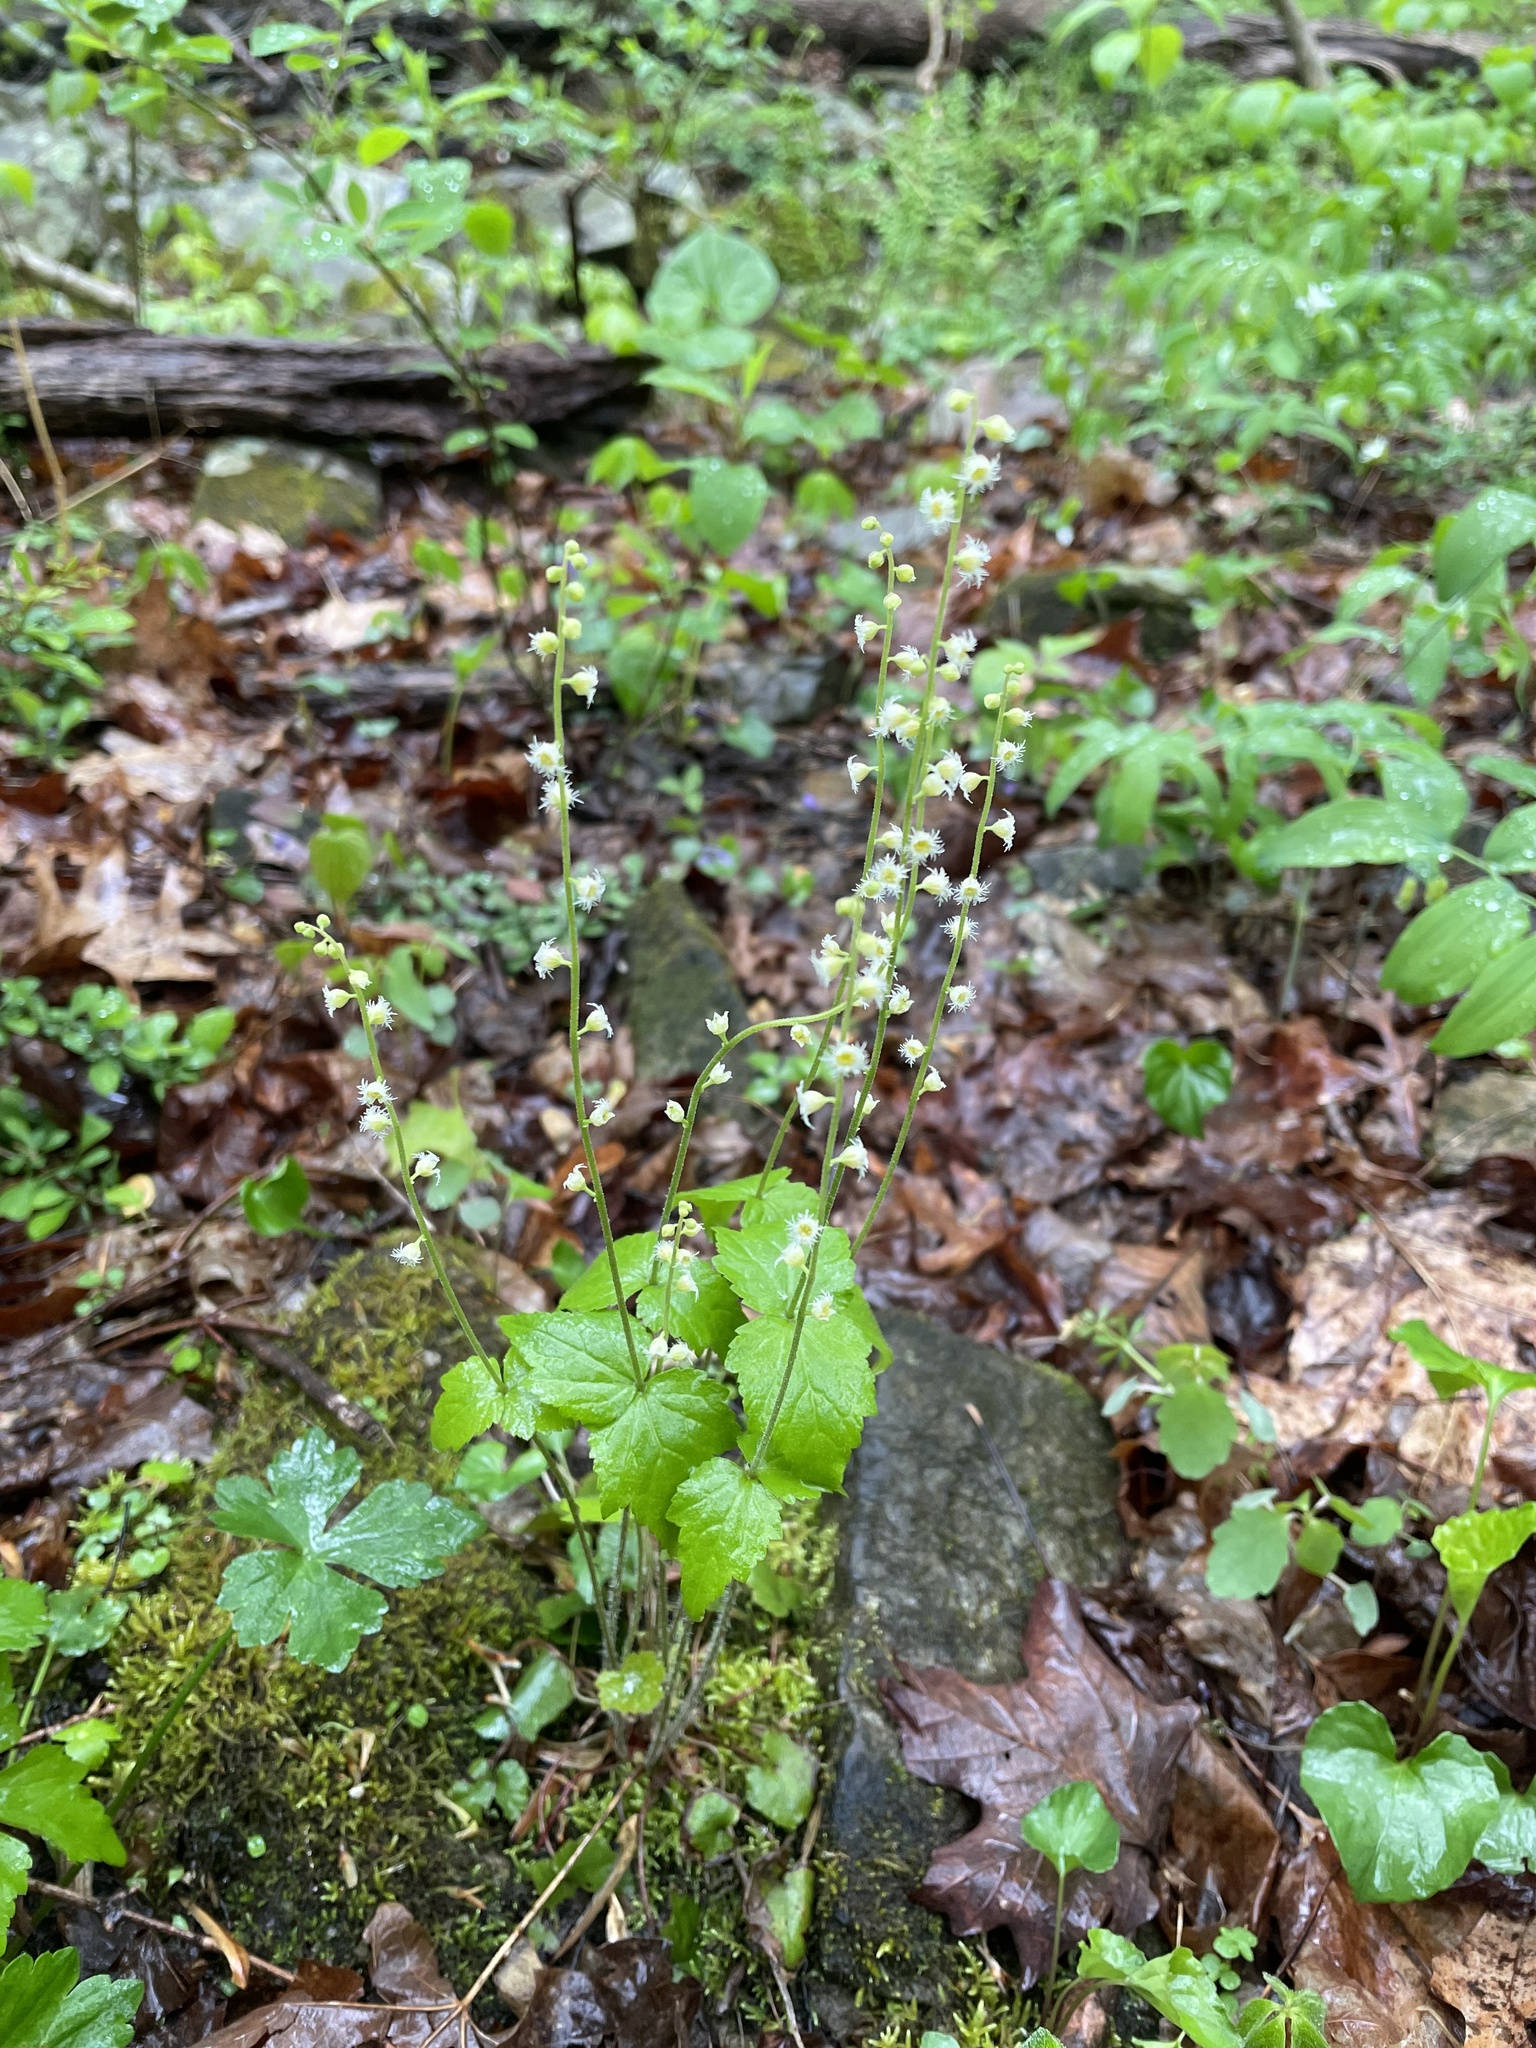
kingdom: Plantae
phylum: Tracheophyta
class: Magnoliopsida
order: Saxifragales
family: Saxifragaceae
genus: Mitella
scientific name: Mitella diphylla
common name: Coolwort
